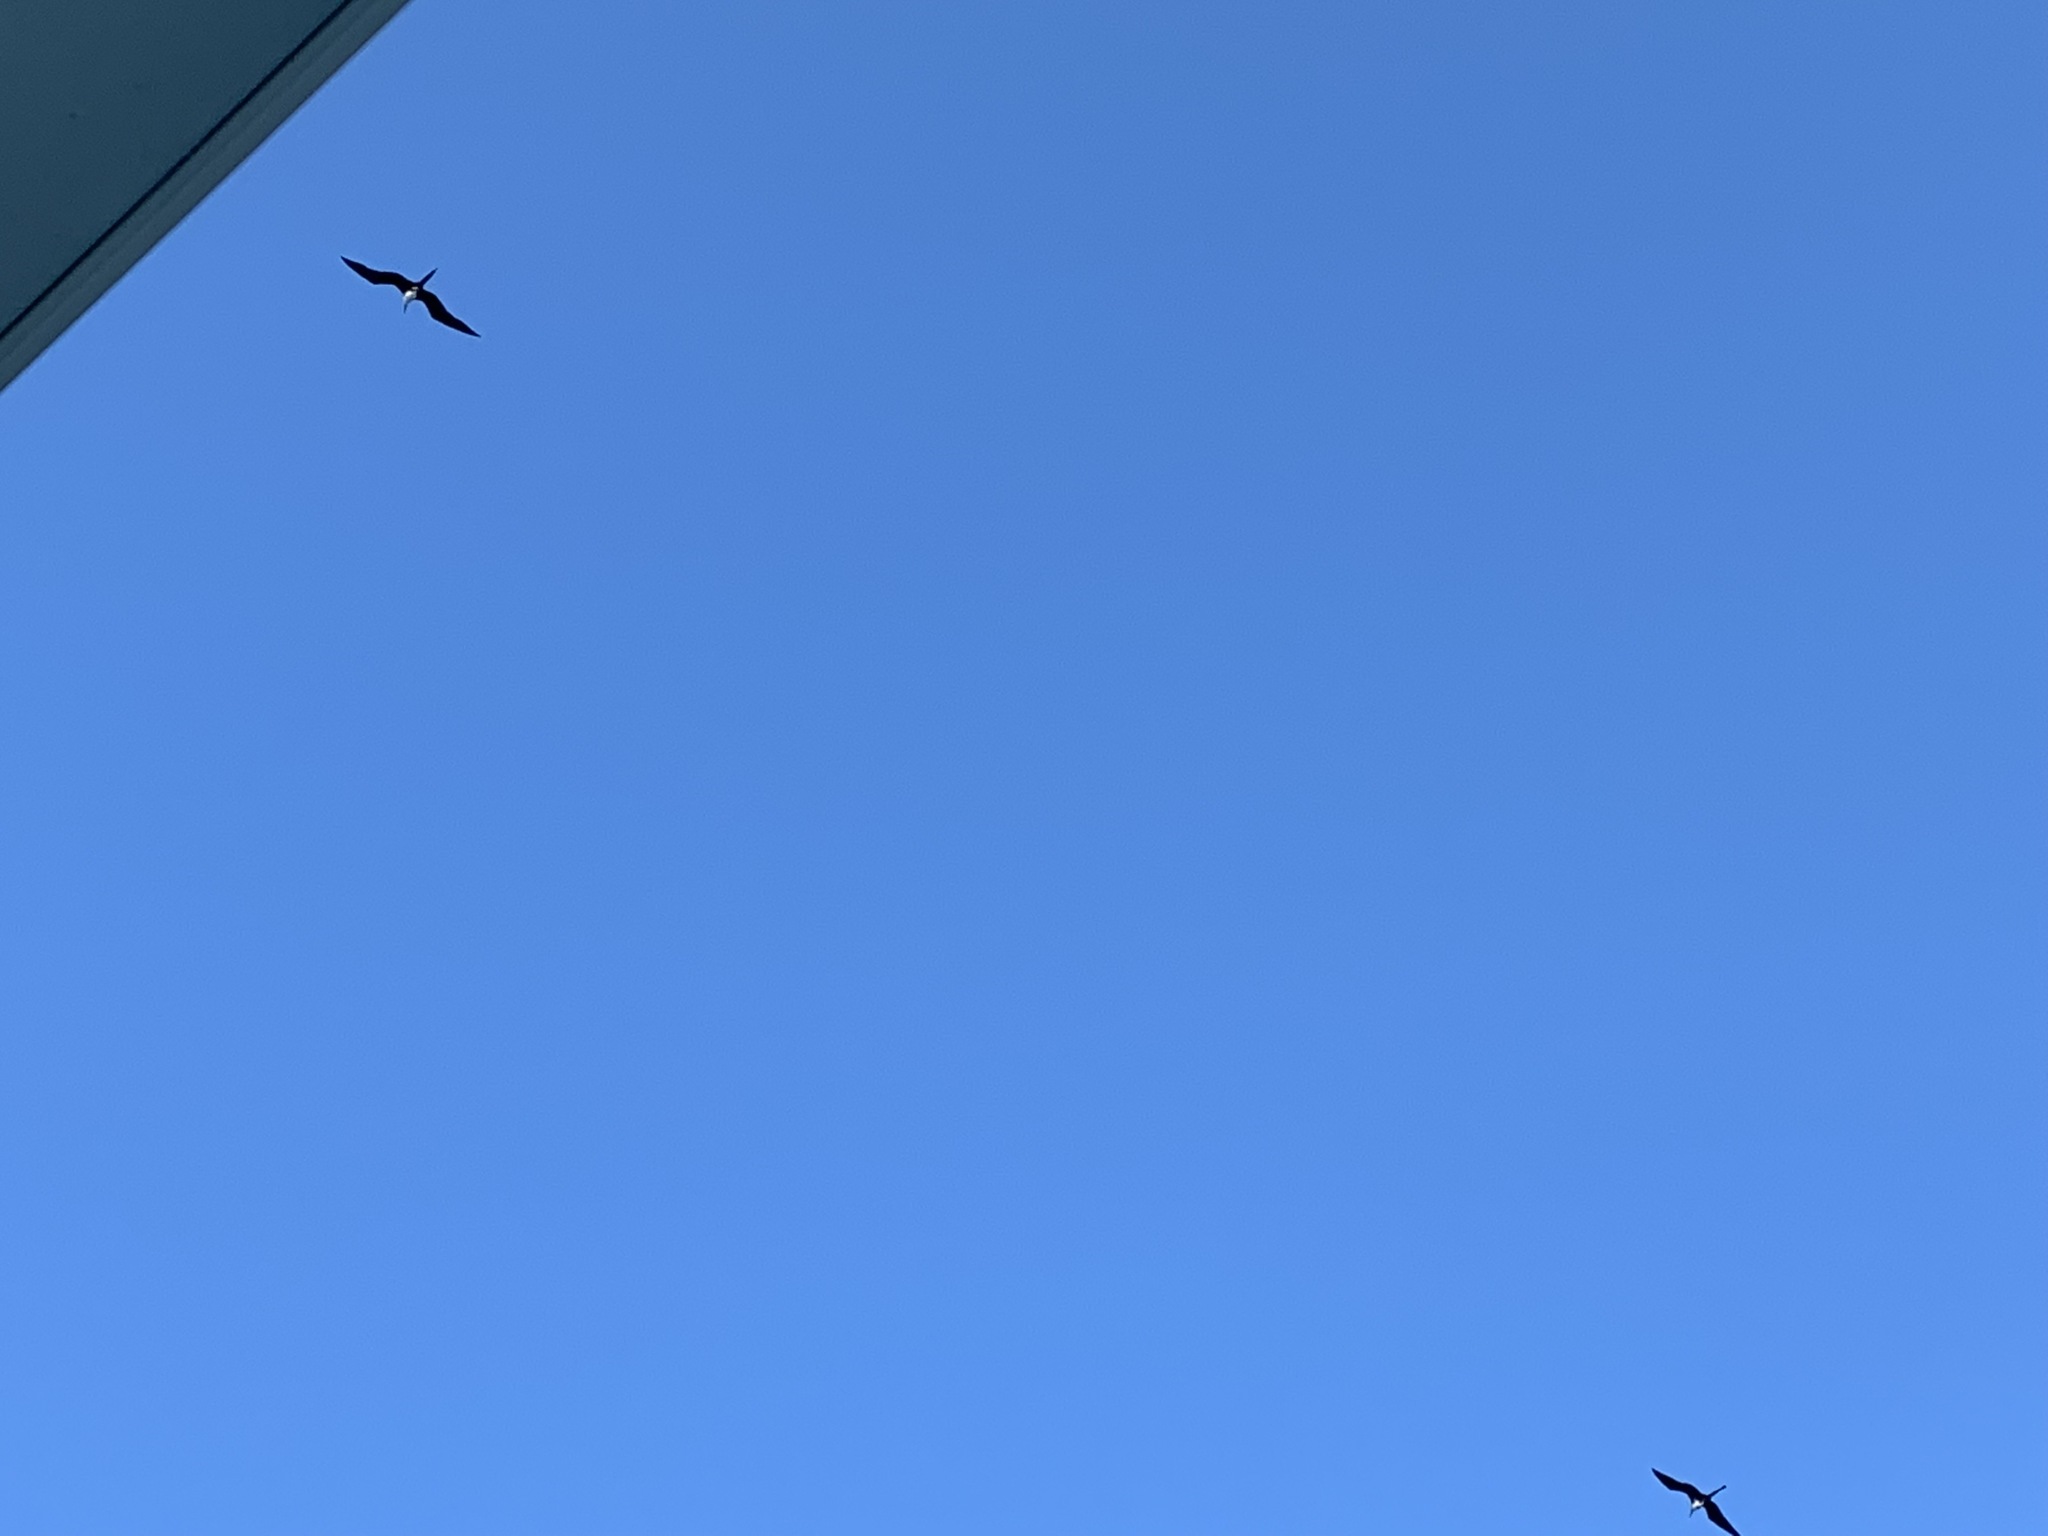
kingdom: Animalia
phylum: Chordata
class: Aves
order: Suliformes
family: Fregatidae
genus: Fregata
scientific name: Fregata magnificens
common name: Magnificent frigatebird
